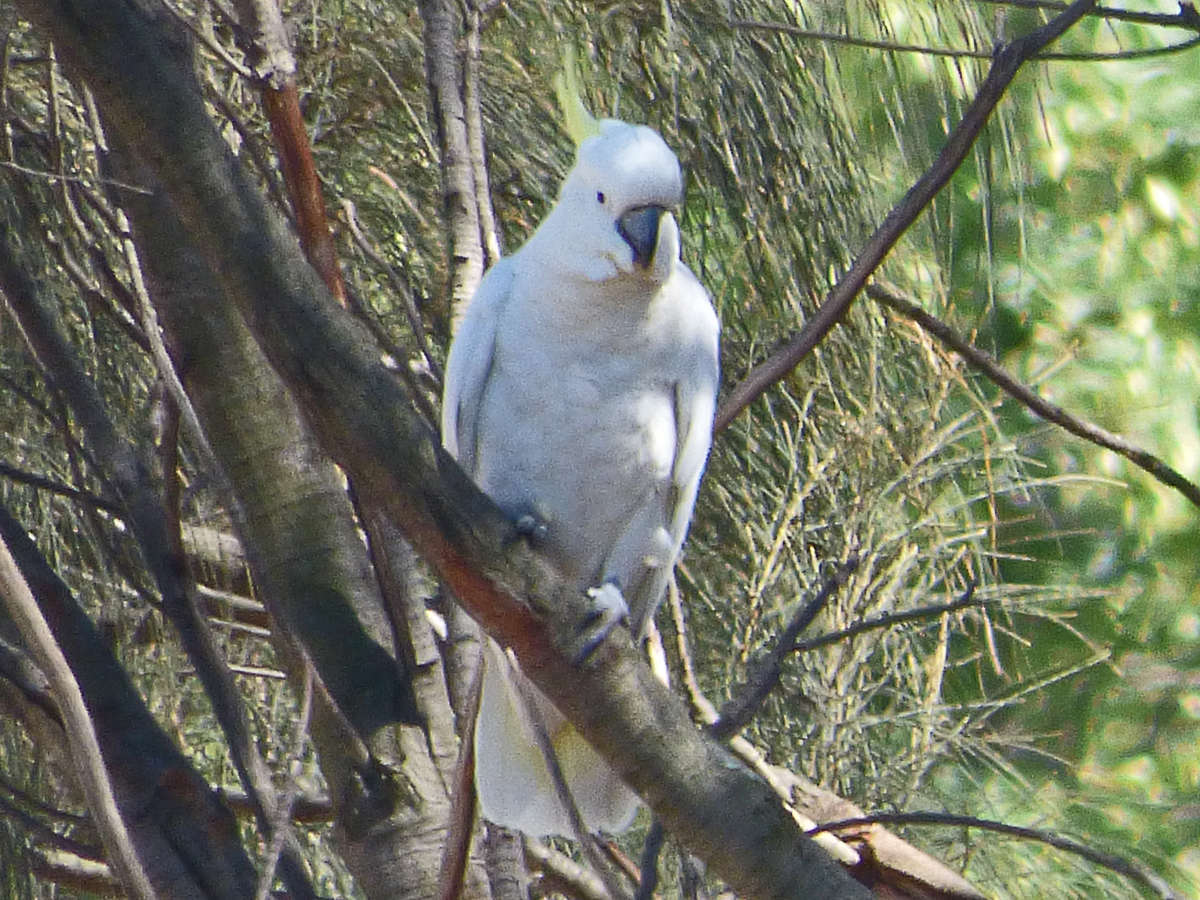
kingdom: Animalia
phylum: Chordata
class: Aves
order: Psittaciformes
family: Psittacidae
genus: Cacatua
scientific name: Cacatua galerita
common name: Sulphur-crested cockatoo
